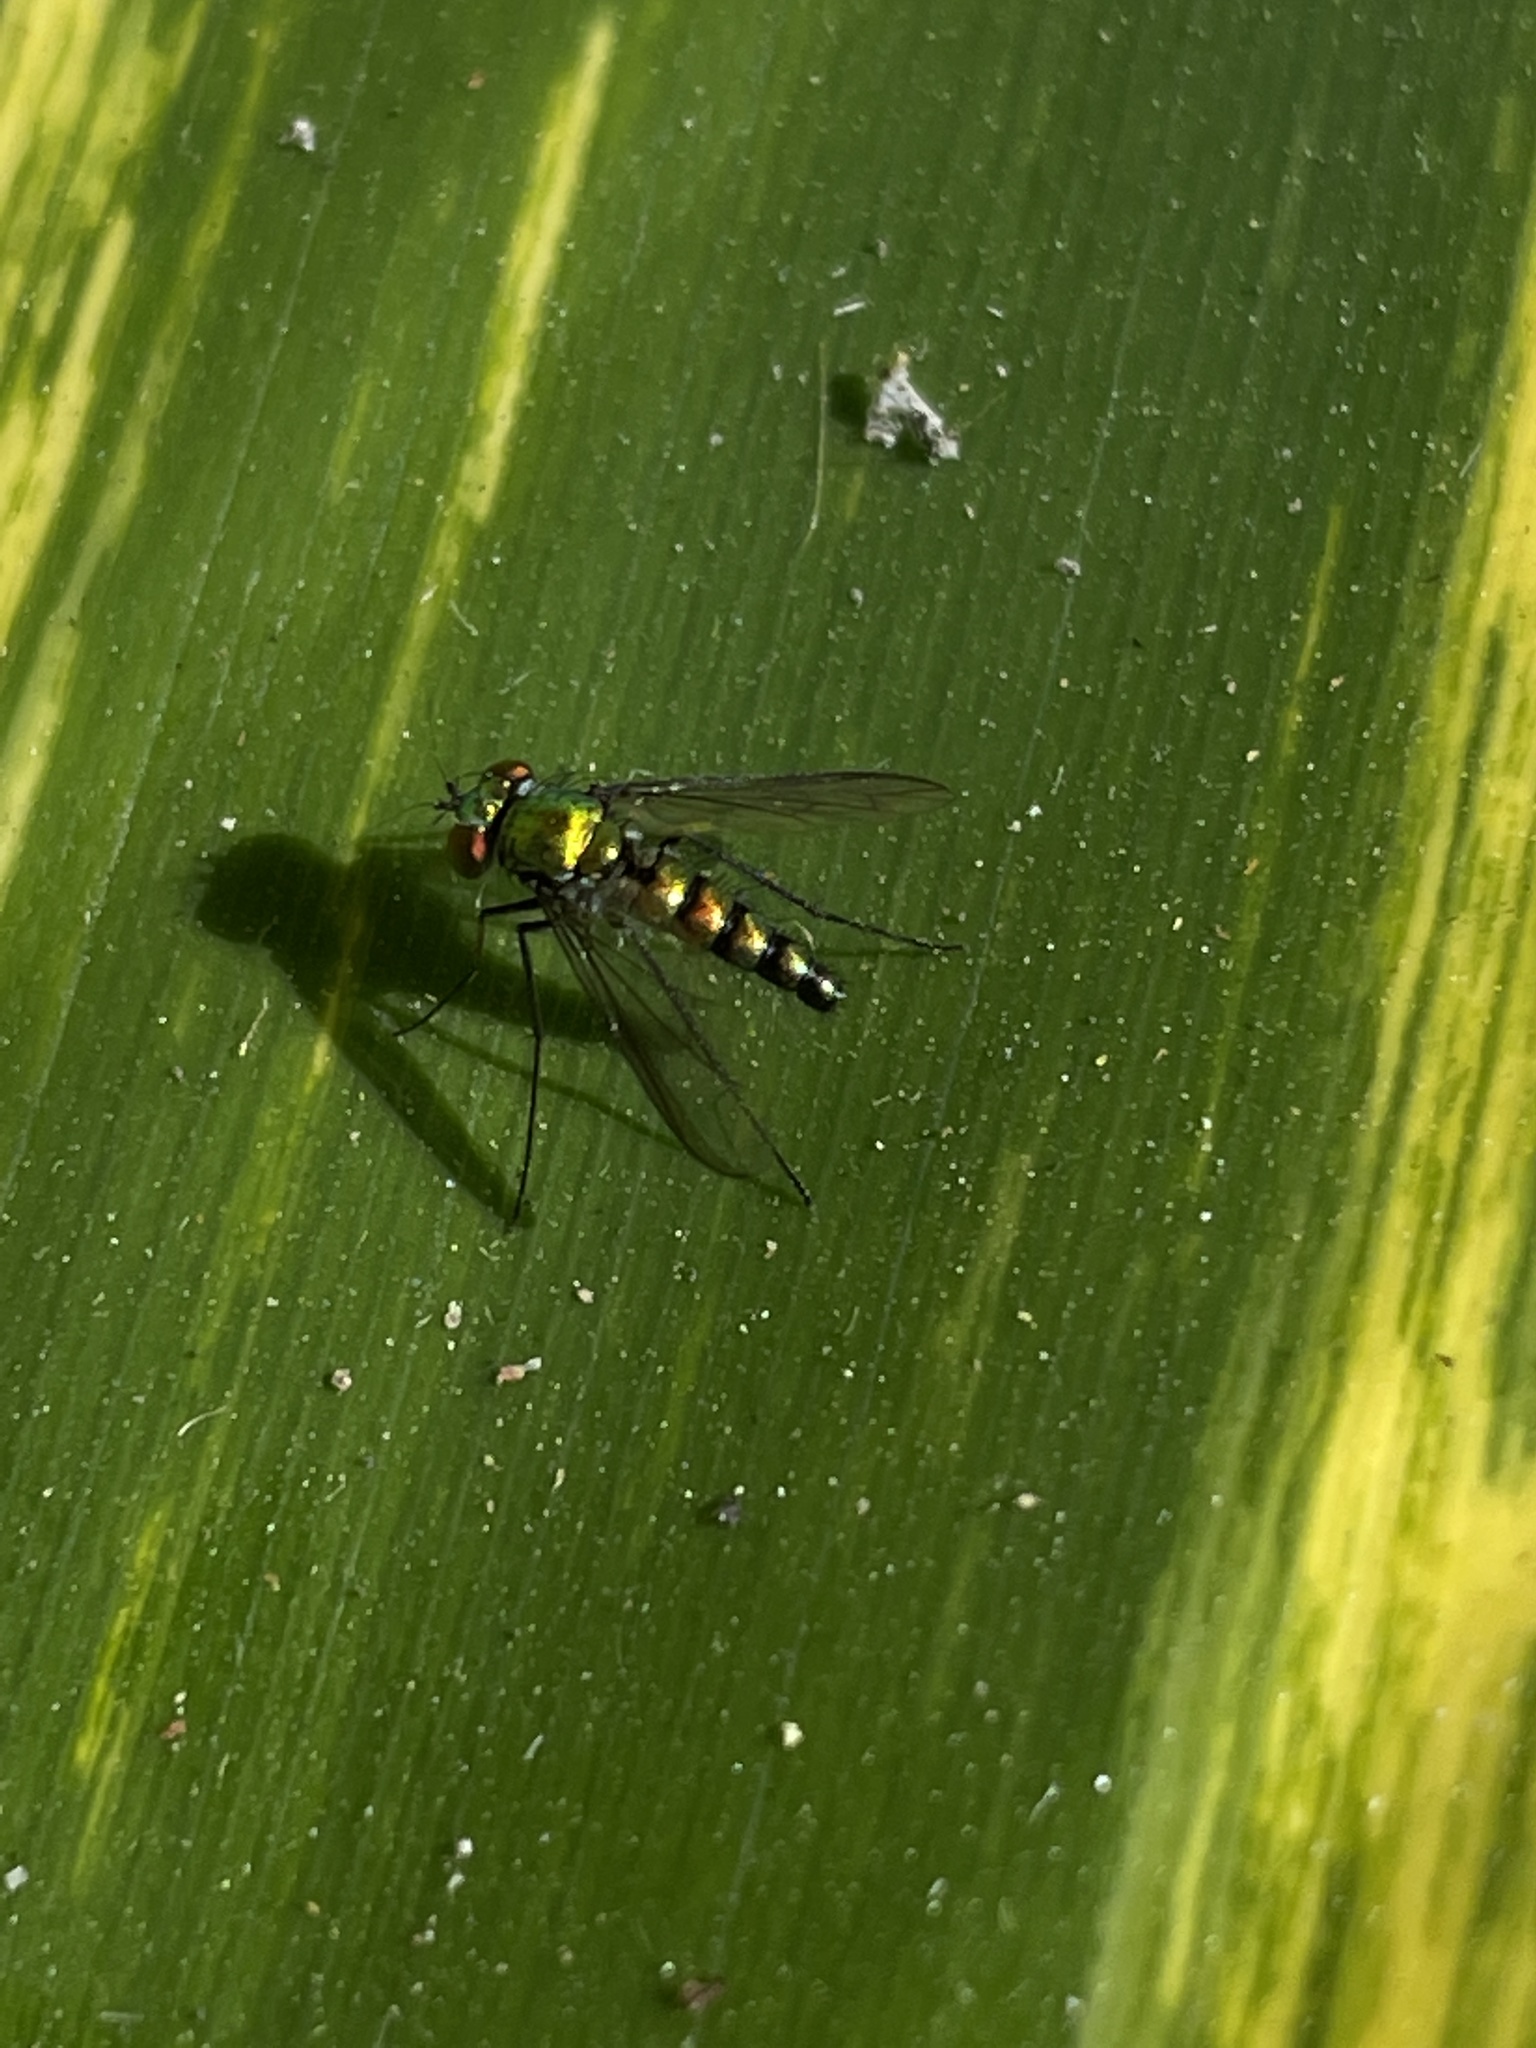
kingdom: Animalia
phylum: Arthropoda
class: Insecta
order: Diptera
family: Dolichopodidae
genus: Condylostylus
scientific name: Condylostylus longicornis
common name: Long-legged fly
